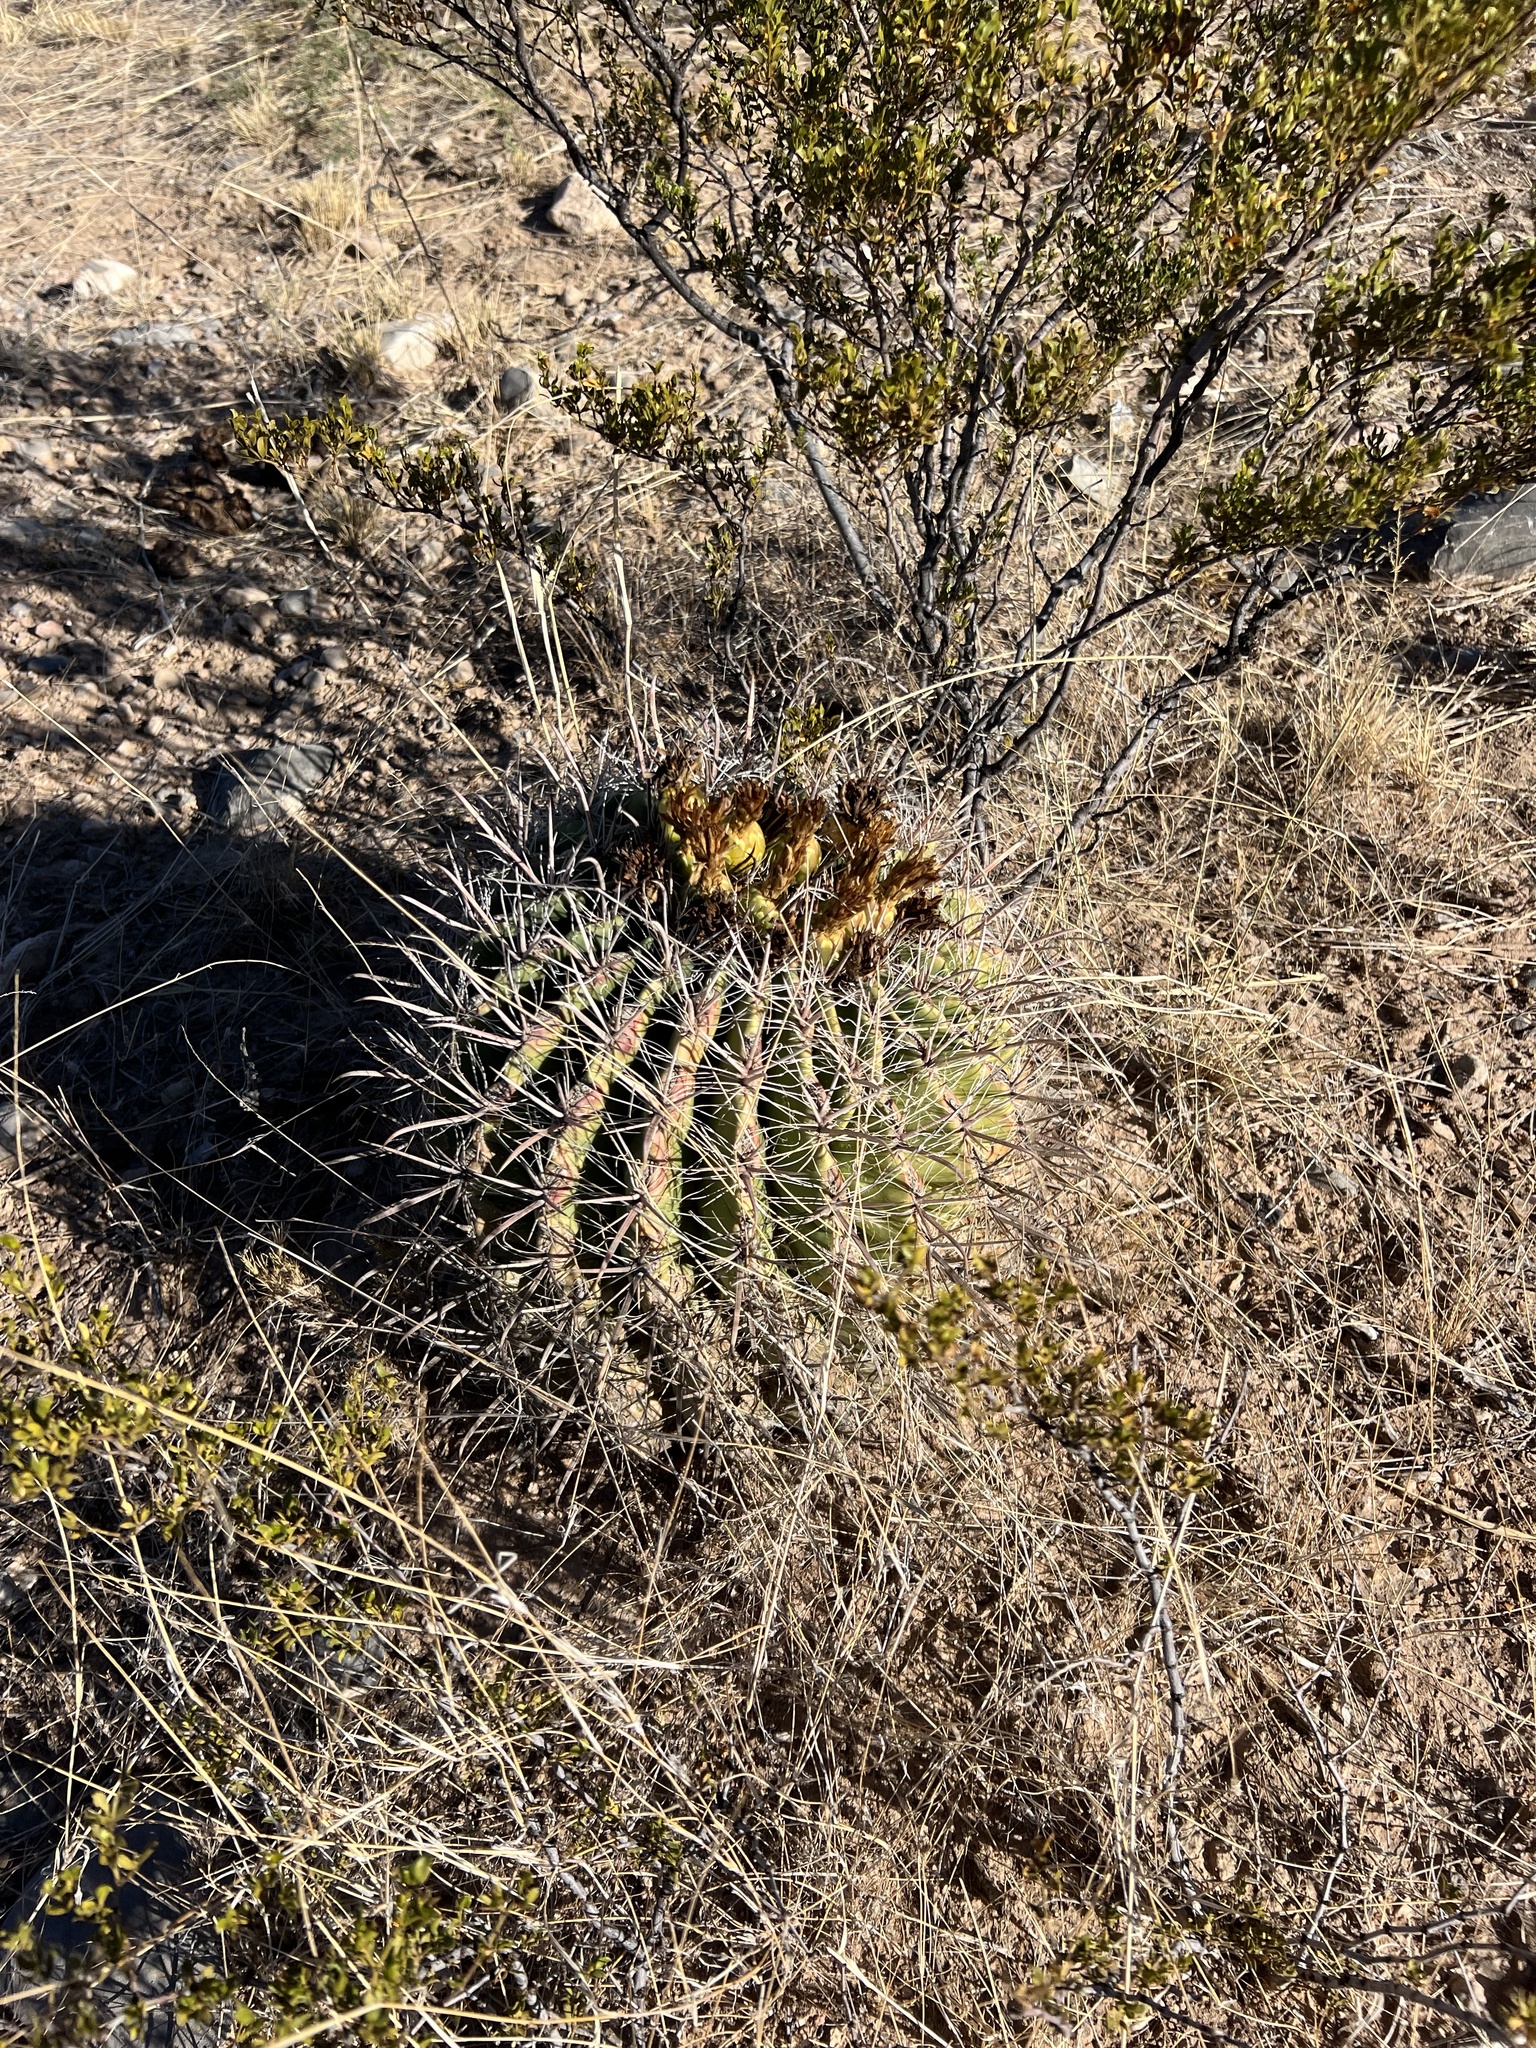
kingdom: Plantae
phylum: Tracheophyta
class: Magnoliopsida
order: Caryophyllales
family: Cactaceae
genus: Ferocactus
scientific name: Ferocactus wislizeni
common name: Candy barrel cactus
